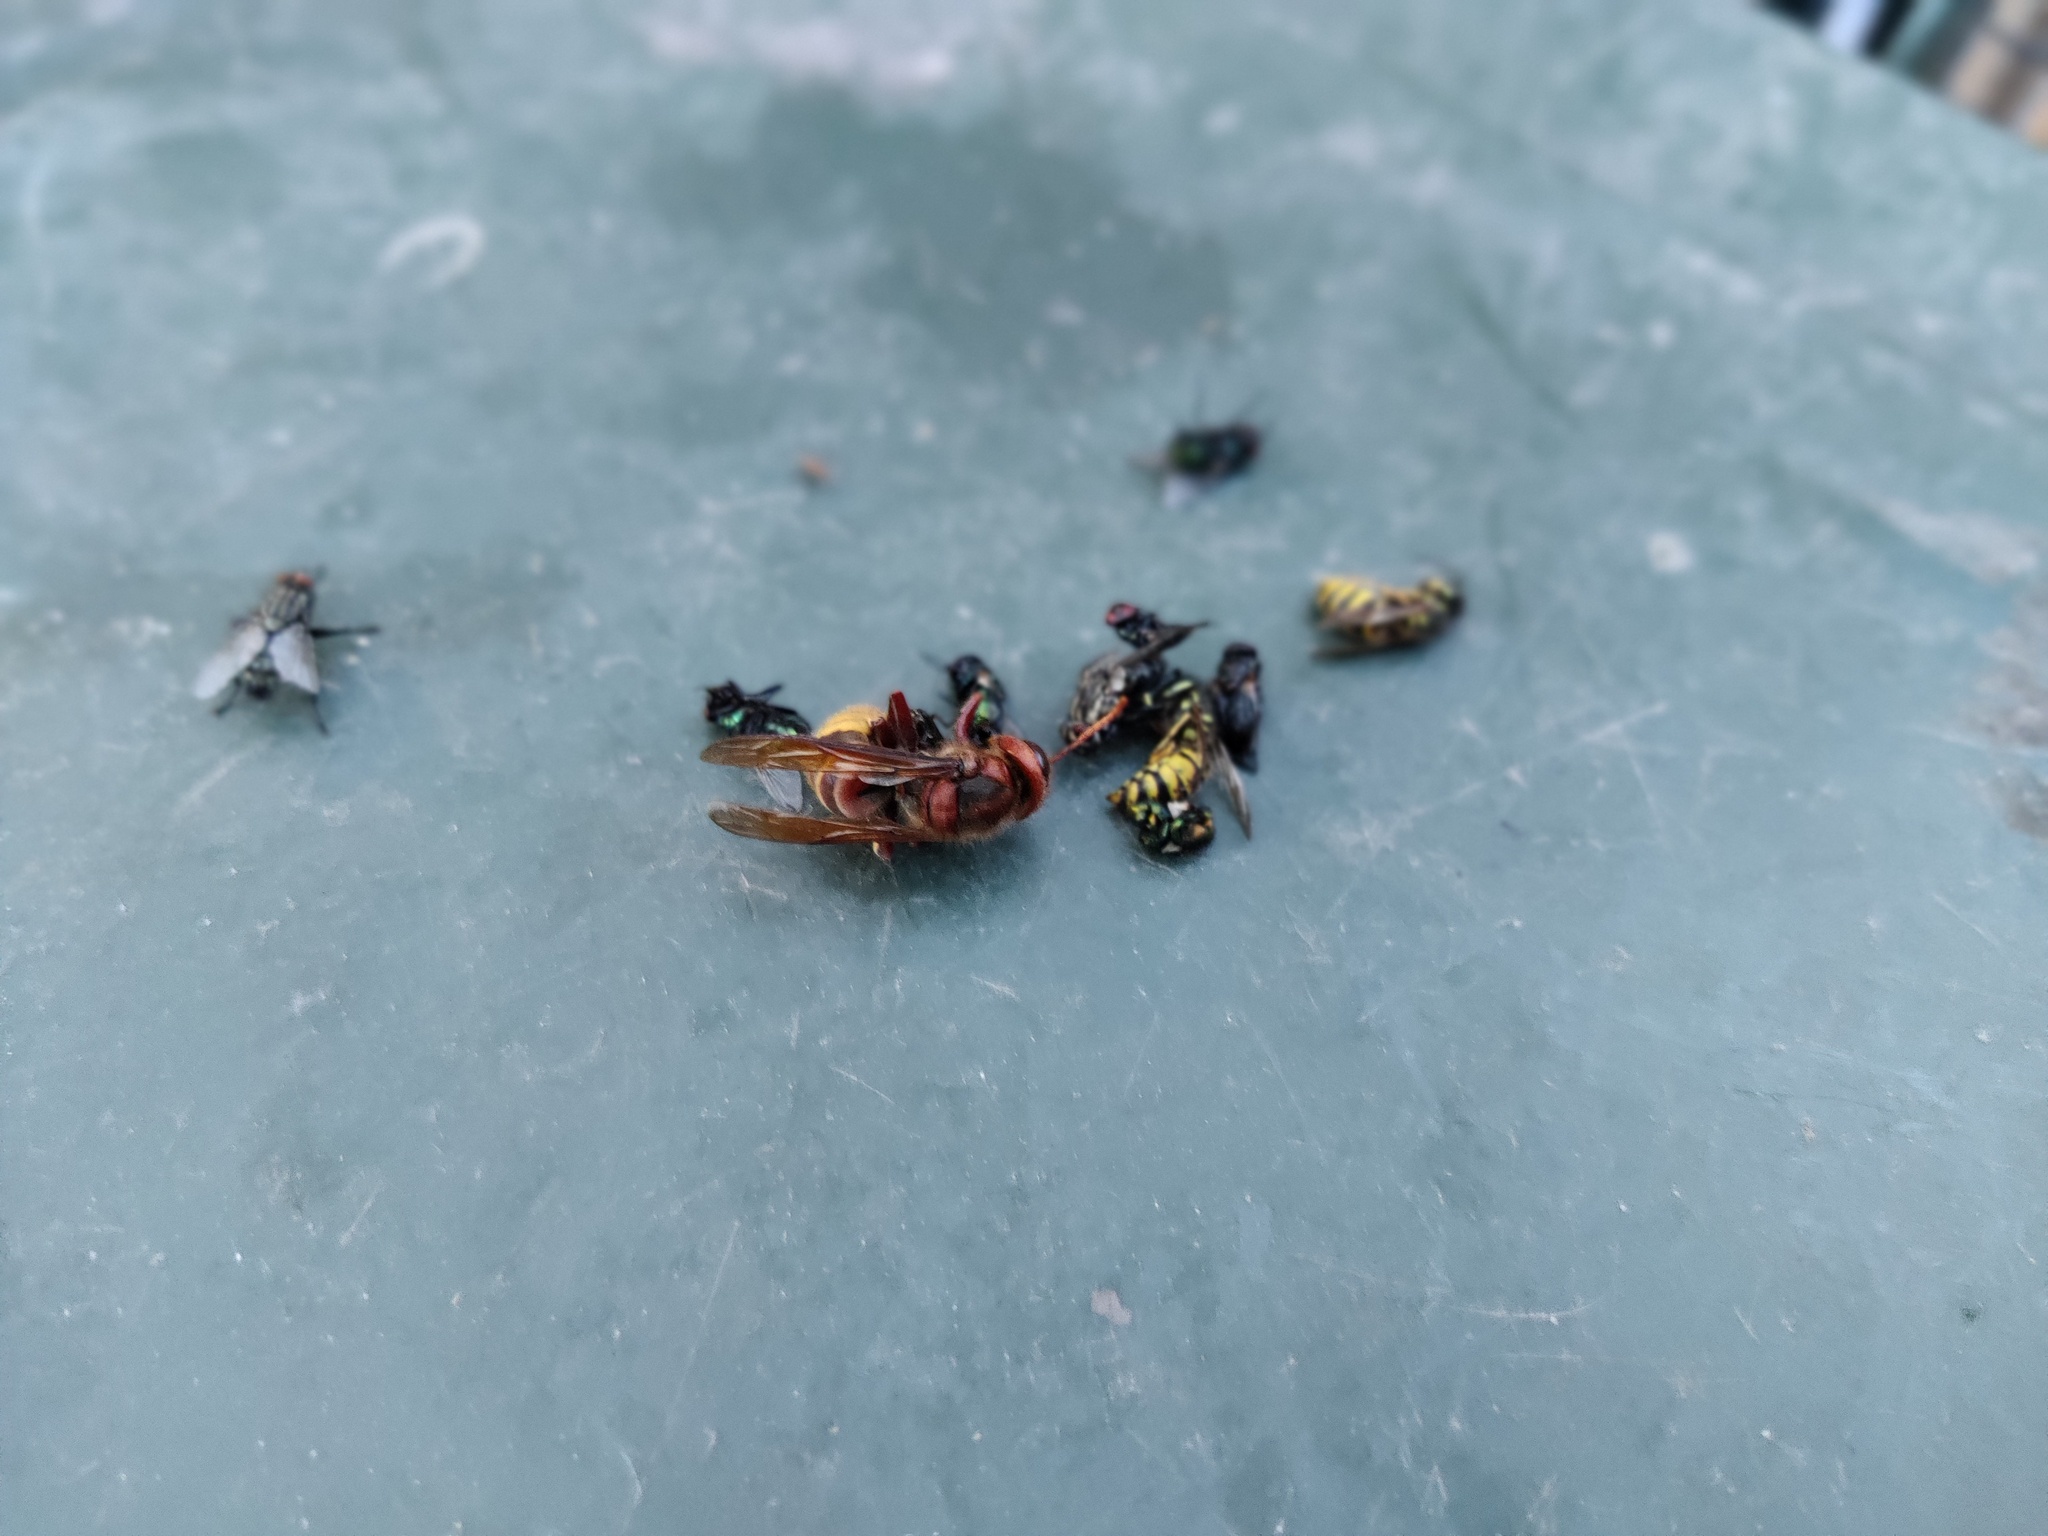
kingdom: Animalia
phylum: Arthropoda
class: Insecta
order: Hymenoptera
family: Vespidae
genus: Vespa
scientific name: Vespa crabro
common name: Hornet
